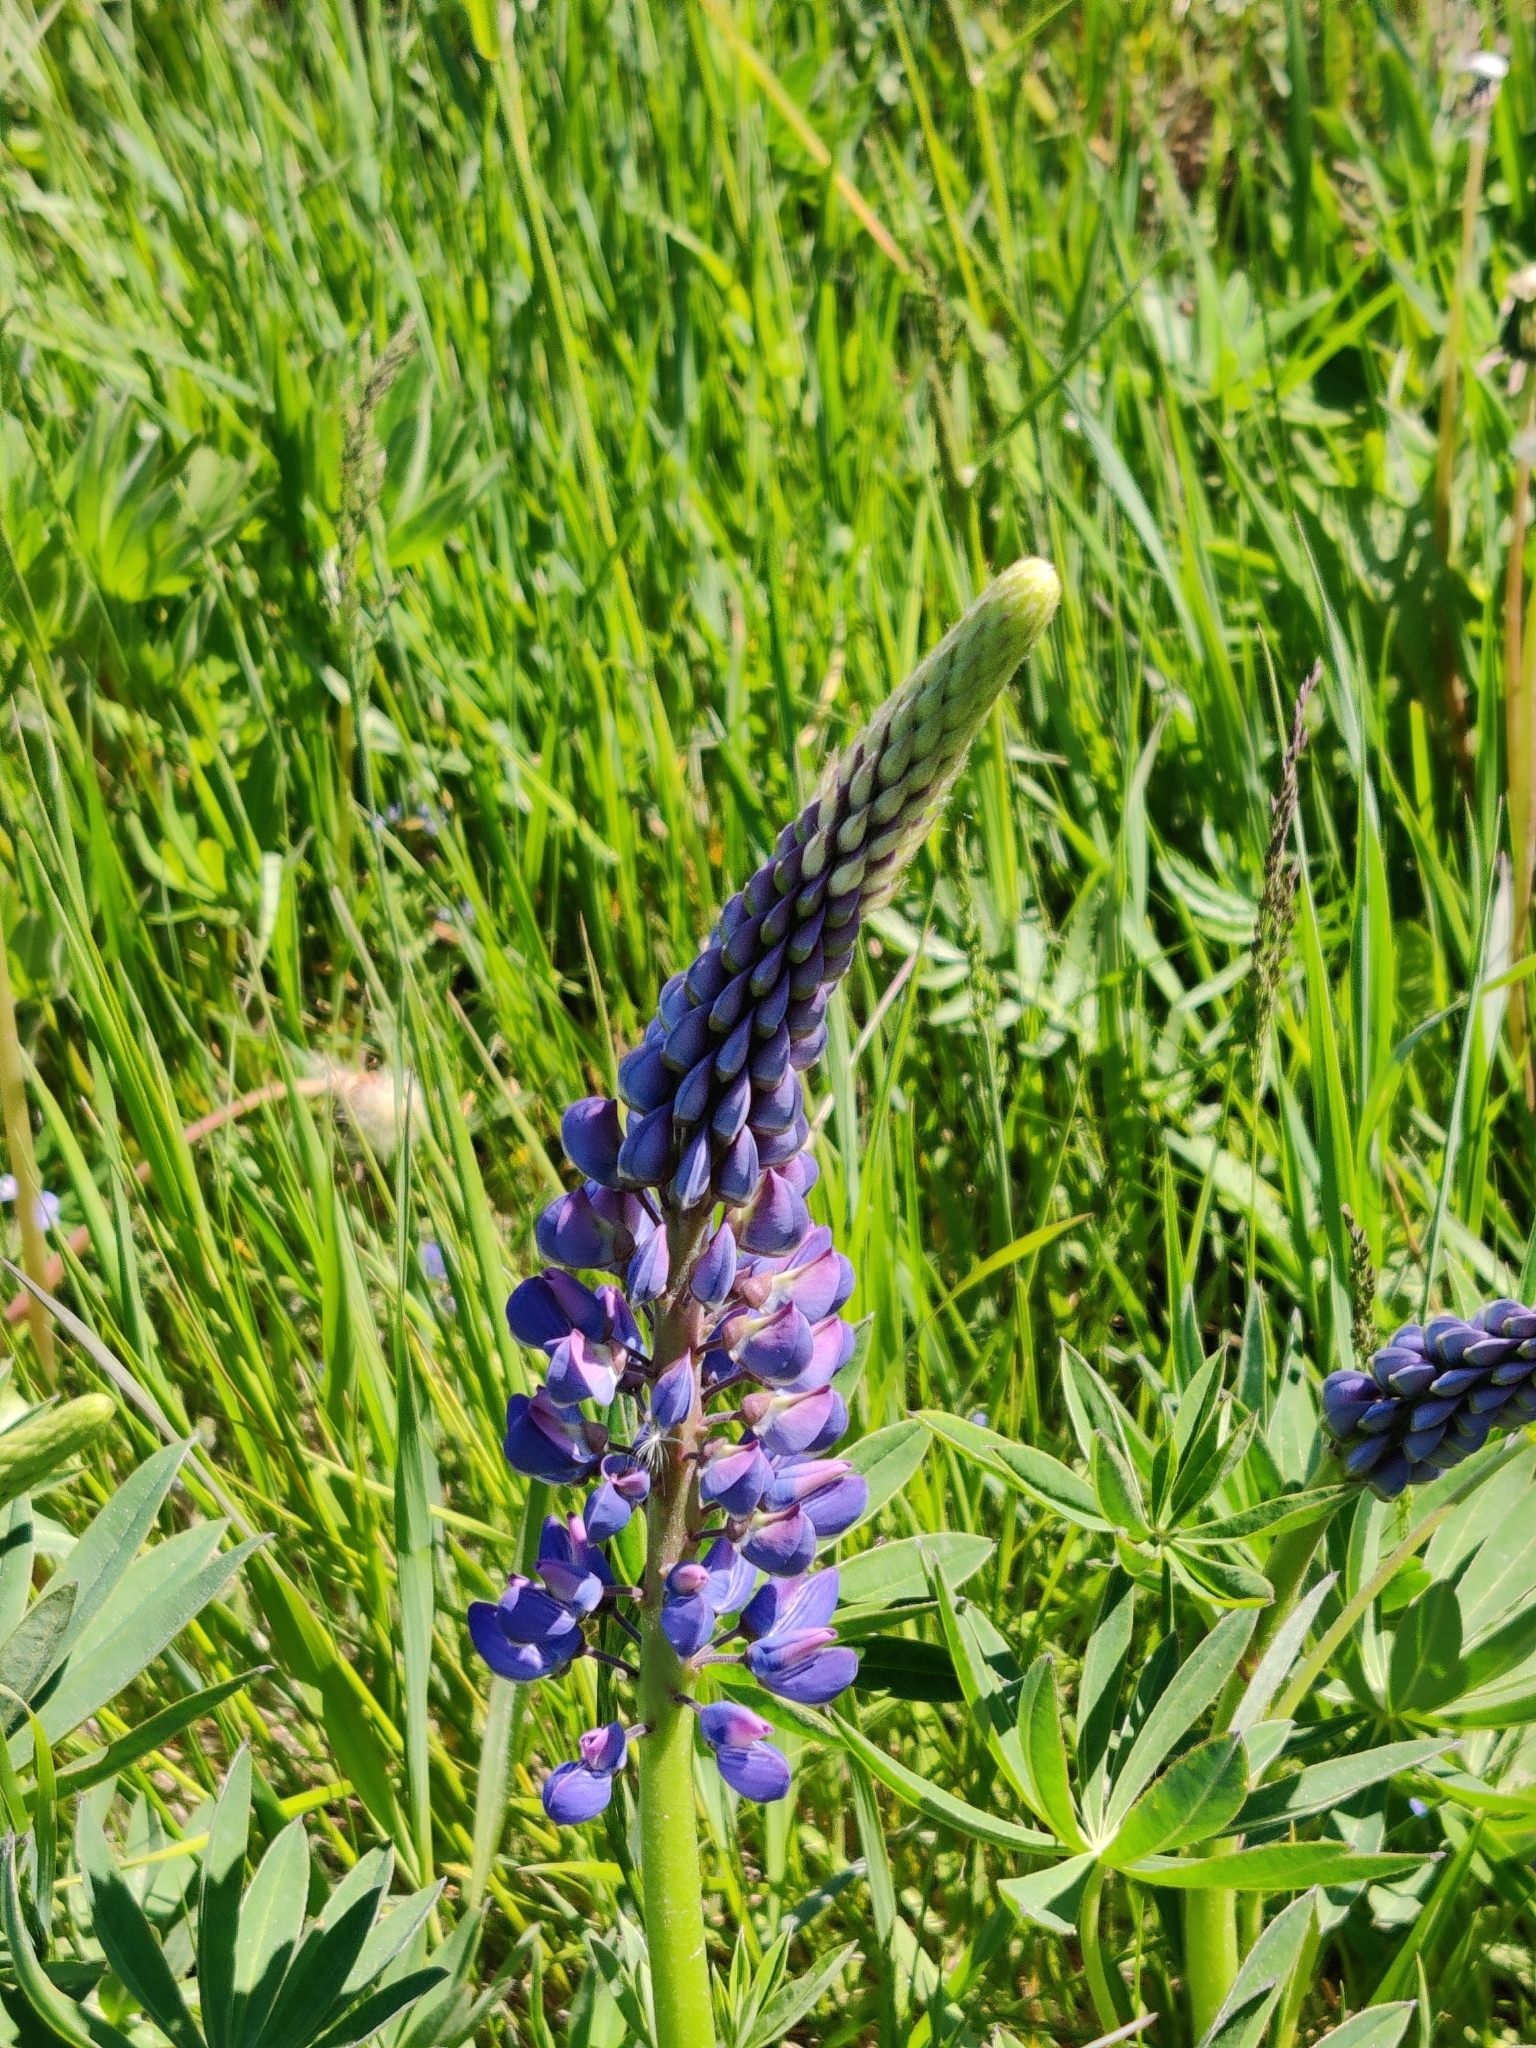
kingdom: Plantae
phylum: Tracheophyta
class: Magnoliopsida
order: Fabales
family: Fabaceae
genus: Lupinus
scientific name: Lupinus polyphyllus
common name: Garden lupin
